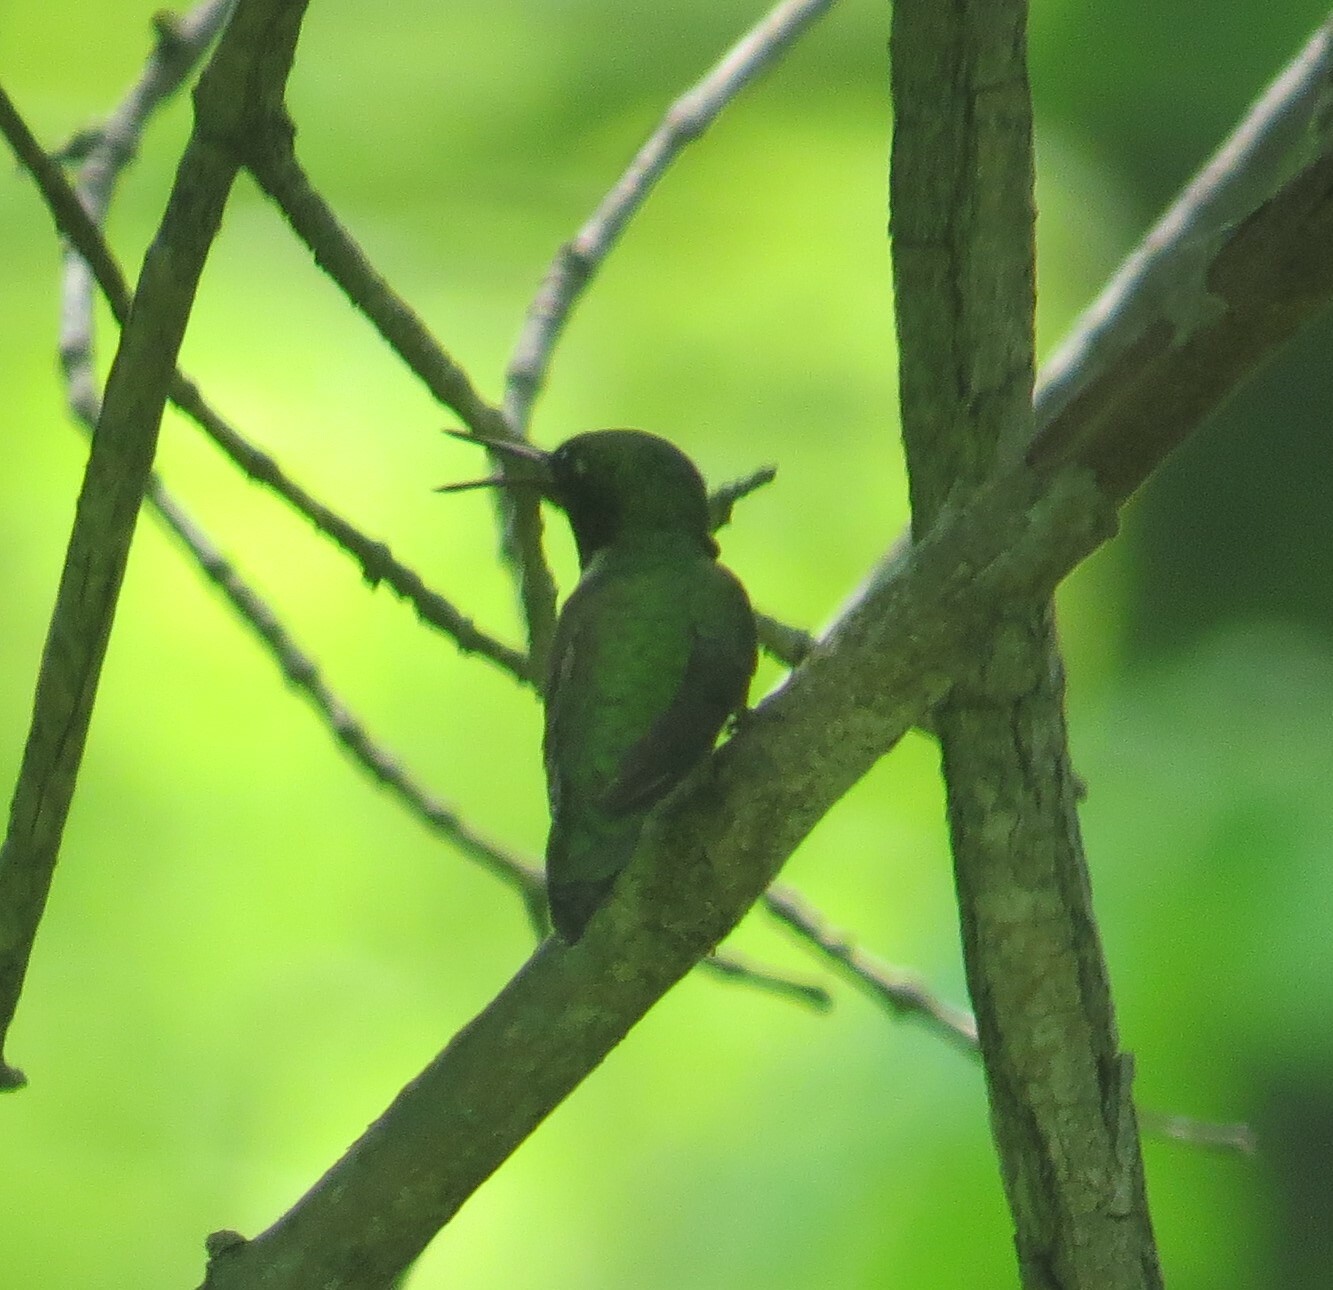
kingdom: Animalia
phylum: Chordata
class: Aves
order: Apodiformes
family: Trochilidae
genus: Archilochus
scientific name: Archilochus colubris
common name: Ruby-throated hummingbird
